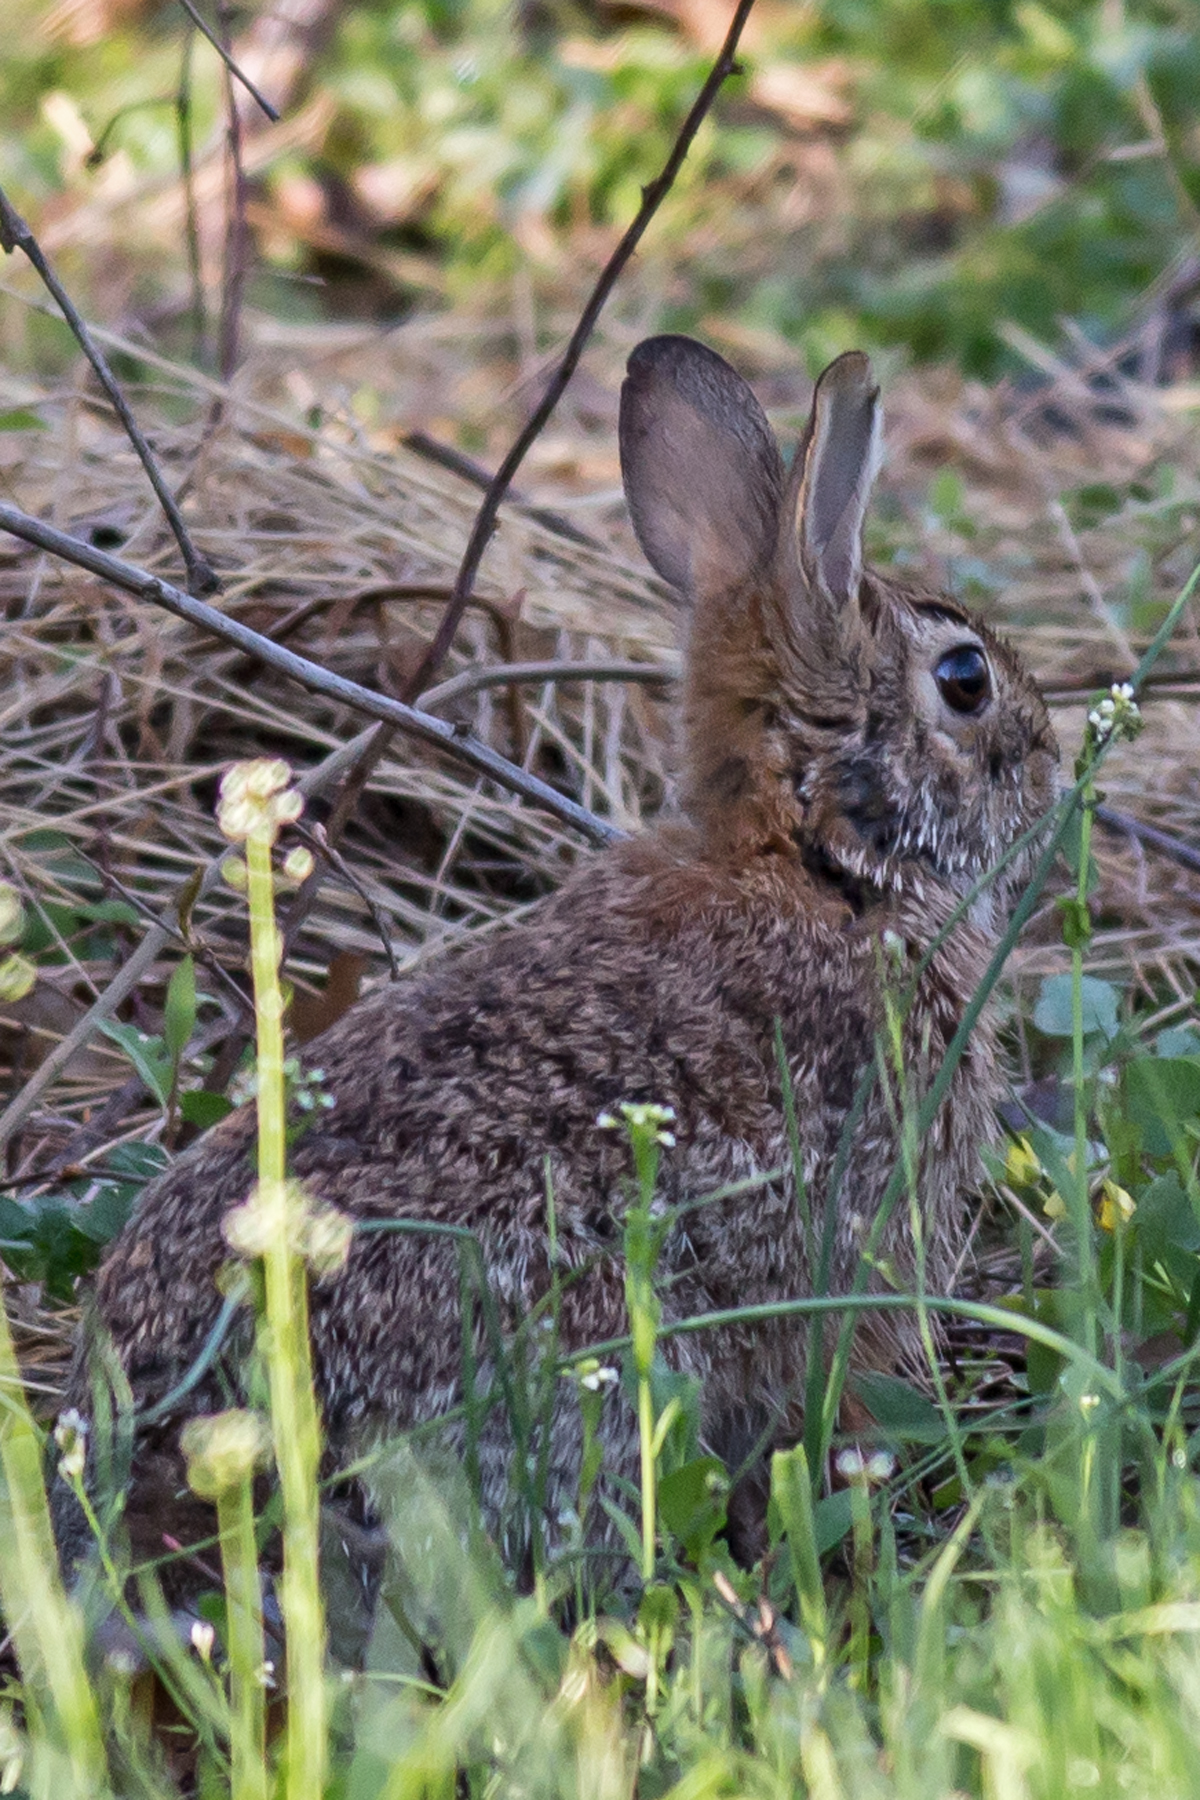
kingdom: Animalia
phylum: Chordata
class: Mammalia
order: Lagomorpha
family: Leporidae
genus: Sylvilagus
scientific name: Sylvilagus floridanus
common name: Eastern cottontail
